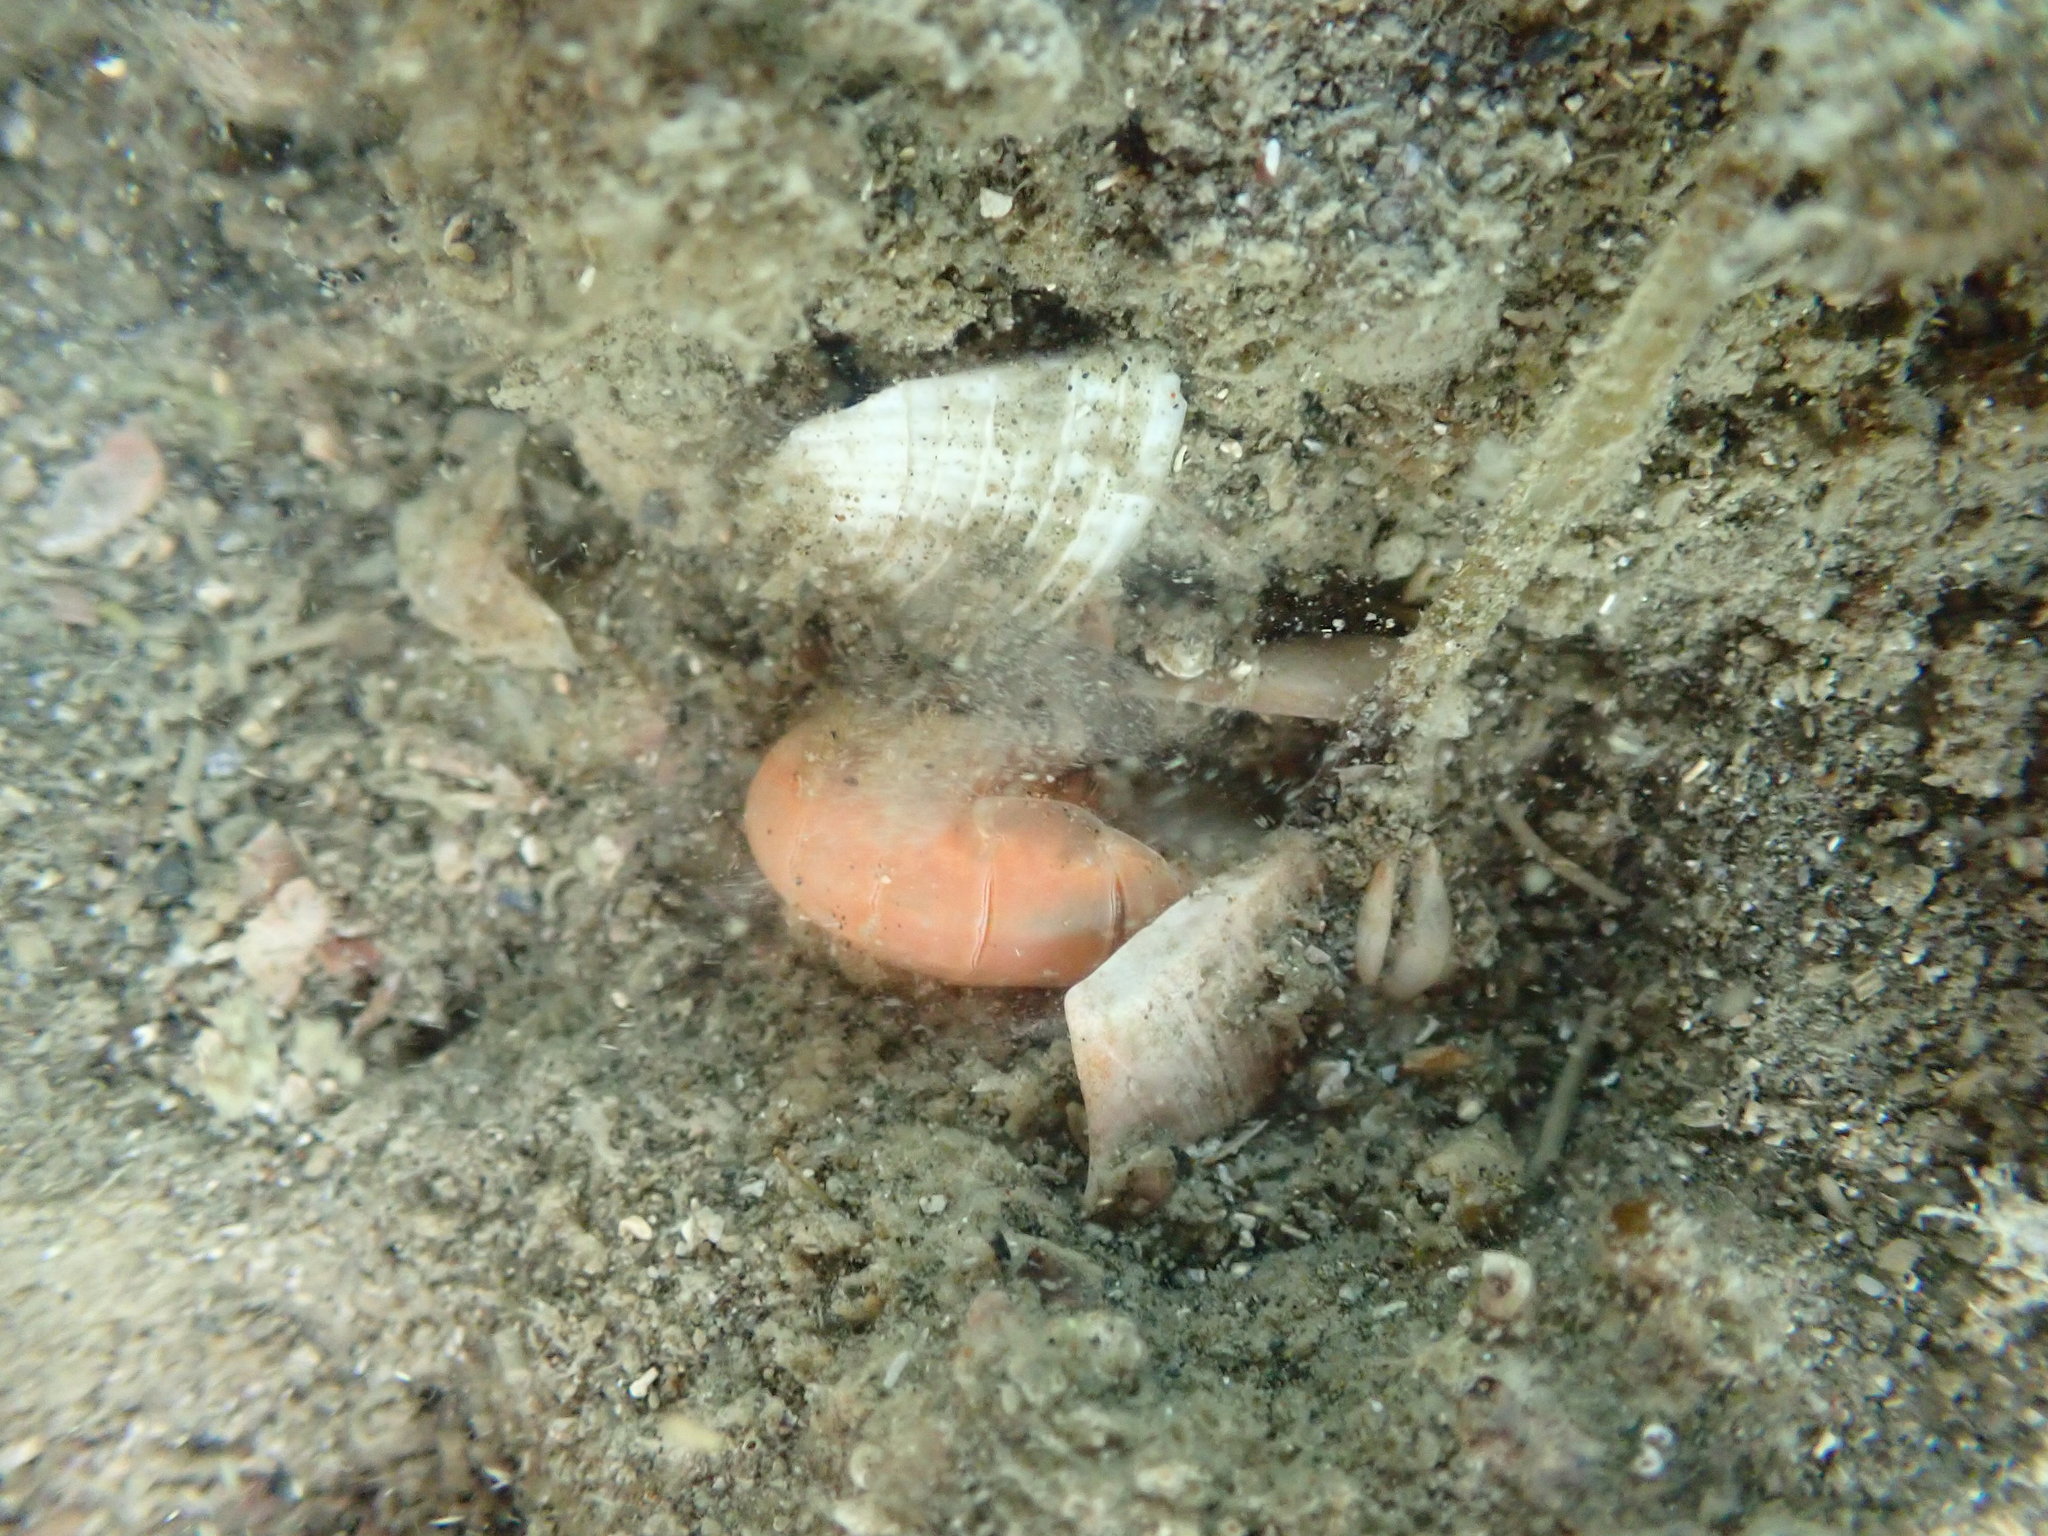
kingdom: Animalia
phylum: Arthropoda
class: Malacostraca
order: Decapoda
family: Upogebiidae
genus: Acutigebia
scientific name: Acutigebia danai
